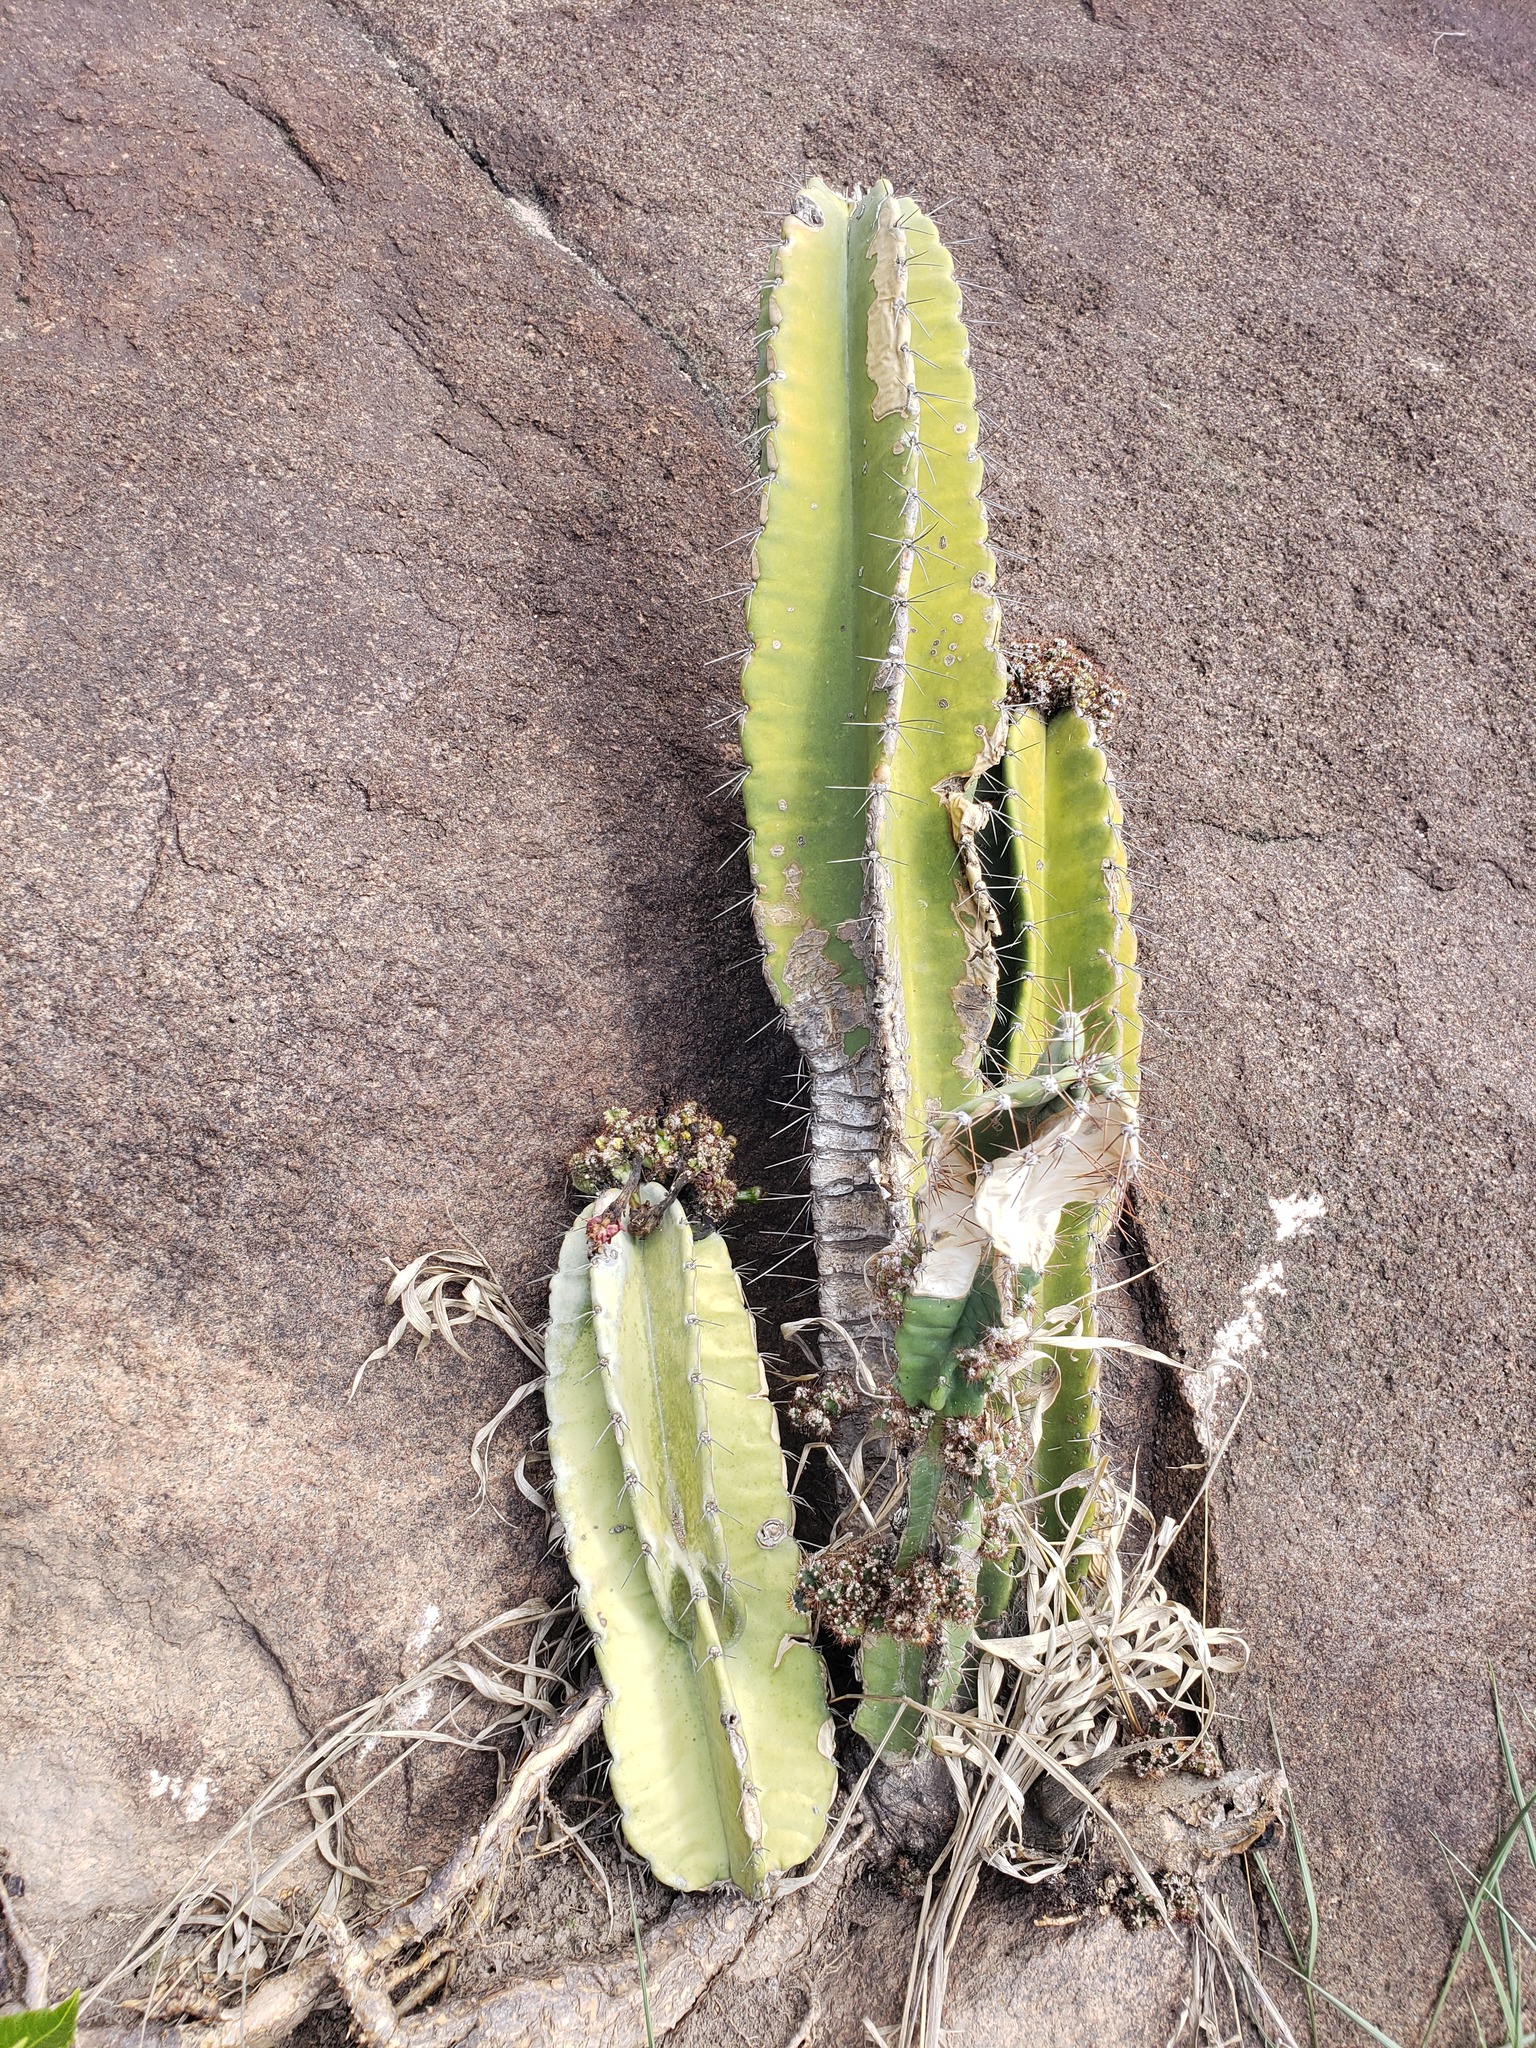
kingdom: Plantae
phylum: Tracheophyta
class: Magnoliopsida
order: Caryophyllales
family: Cactaceae
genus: Cereus
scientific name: Cereus fernambucensis
